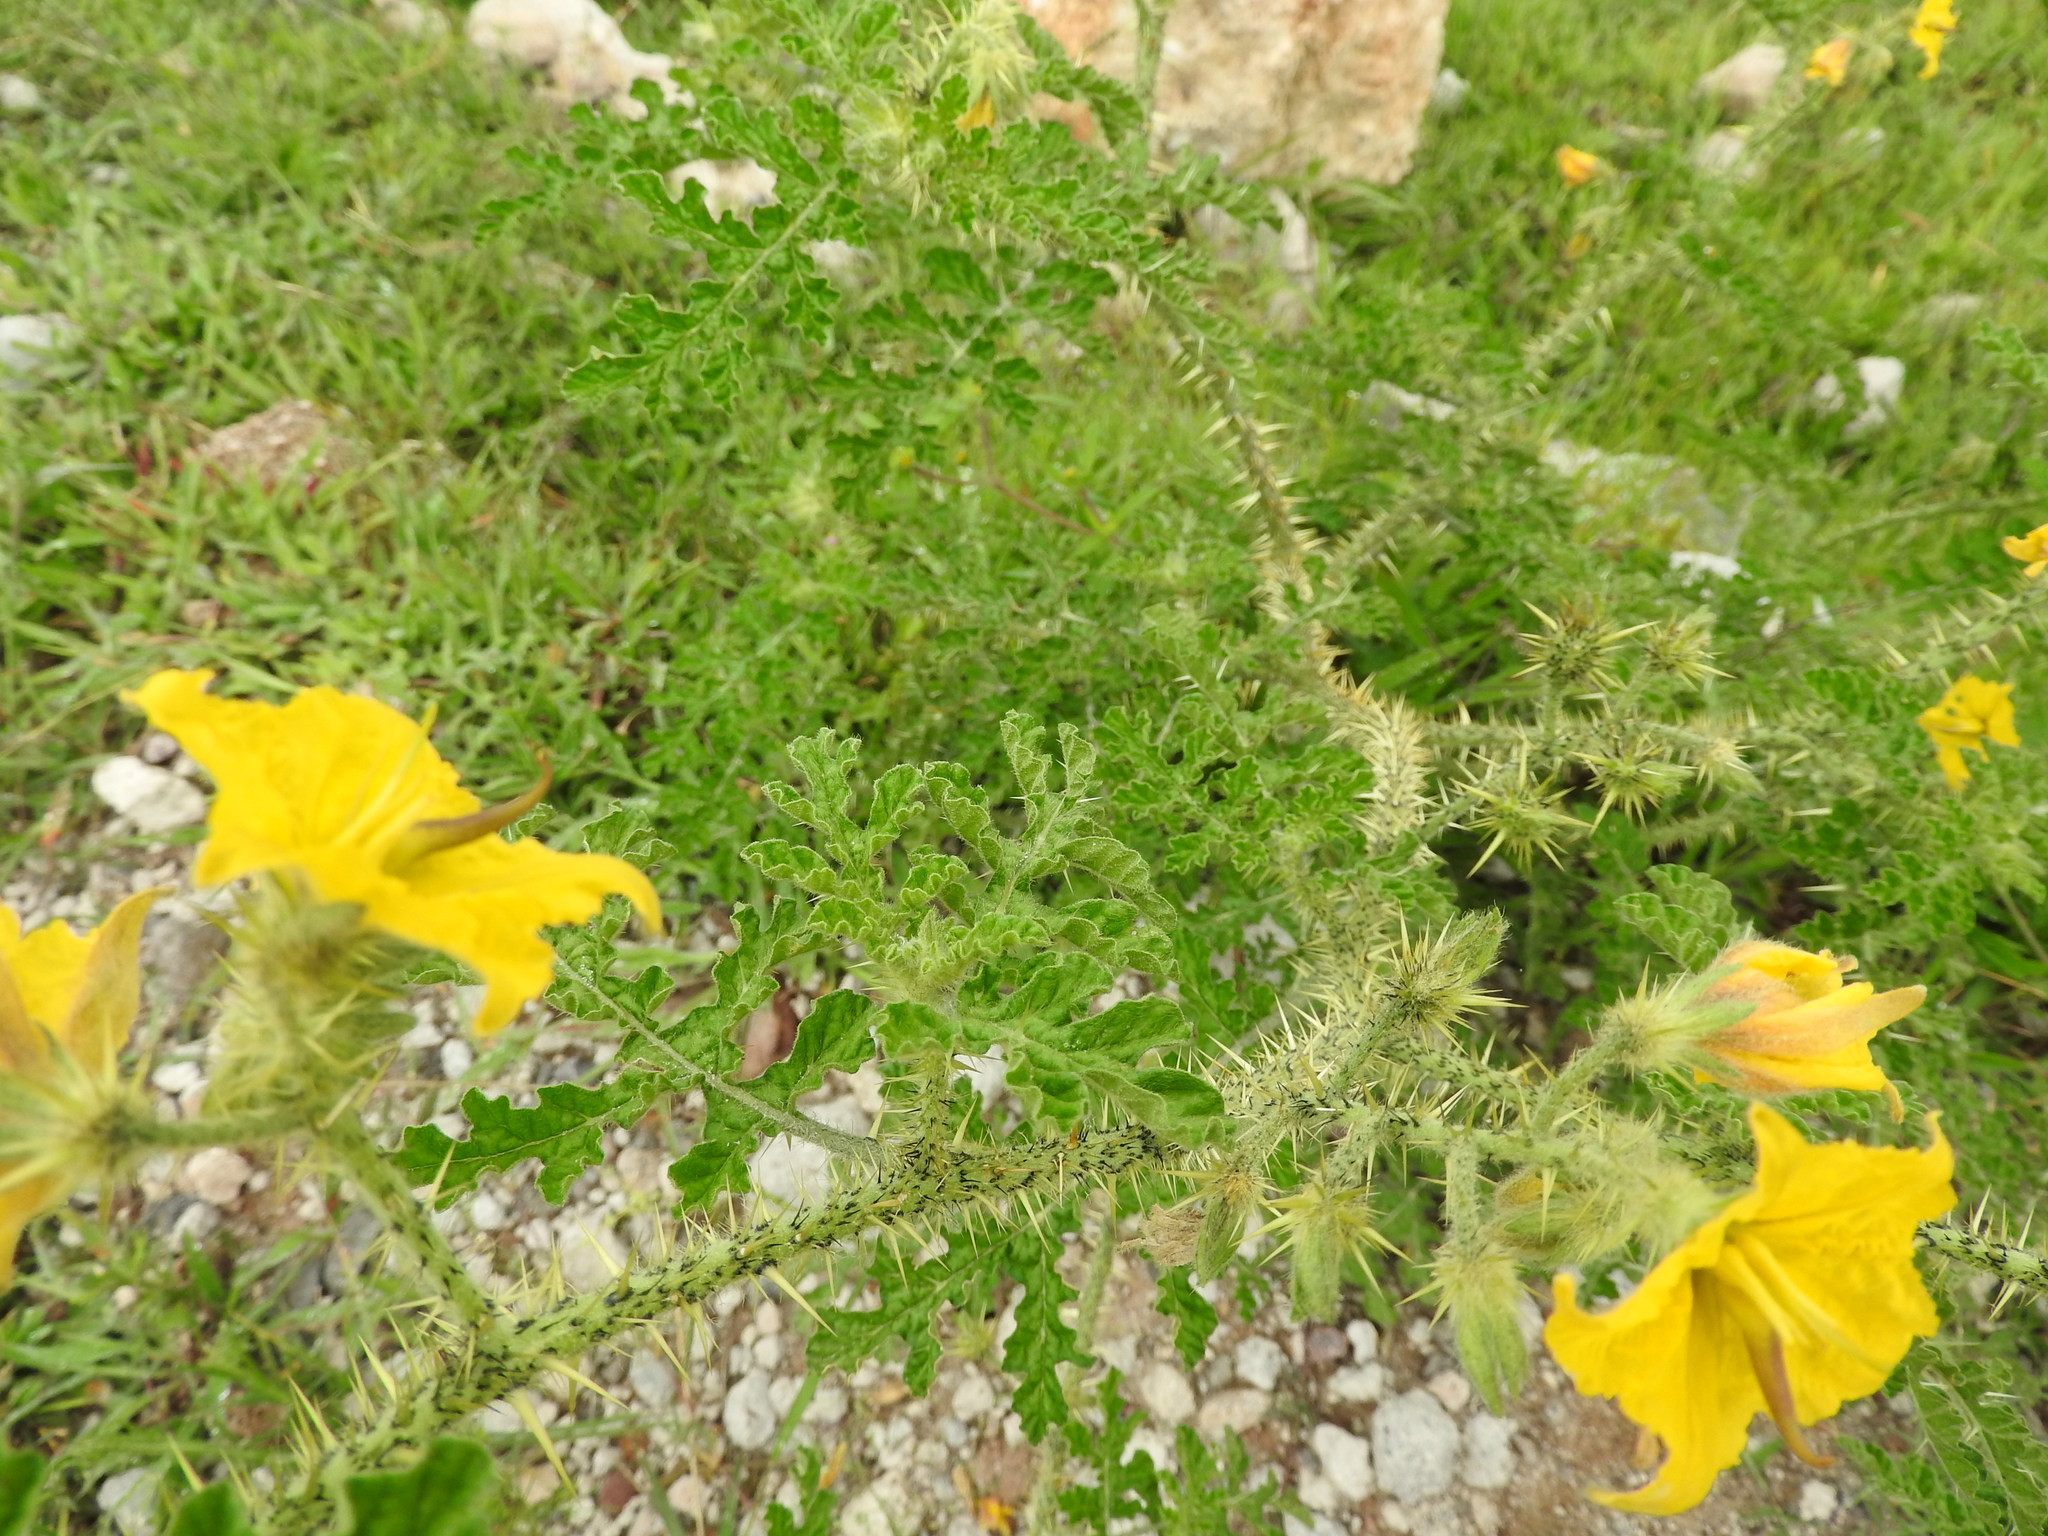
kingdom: Plantae
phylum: Tracheophyta
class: Magnoliopsida
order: Solanales
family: Solanaceae
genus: Solanum
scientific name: Solanum angustifolium
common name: Buffalobur nightshade
